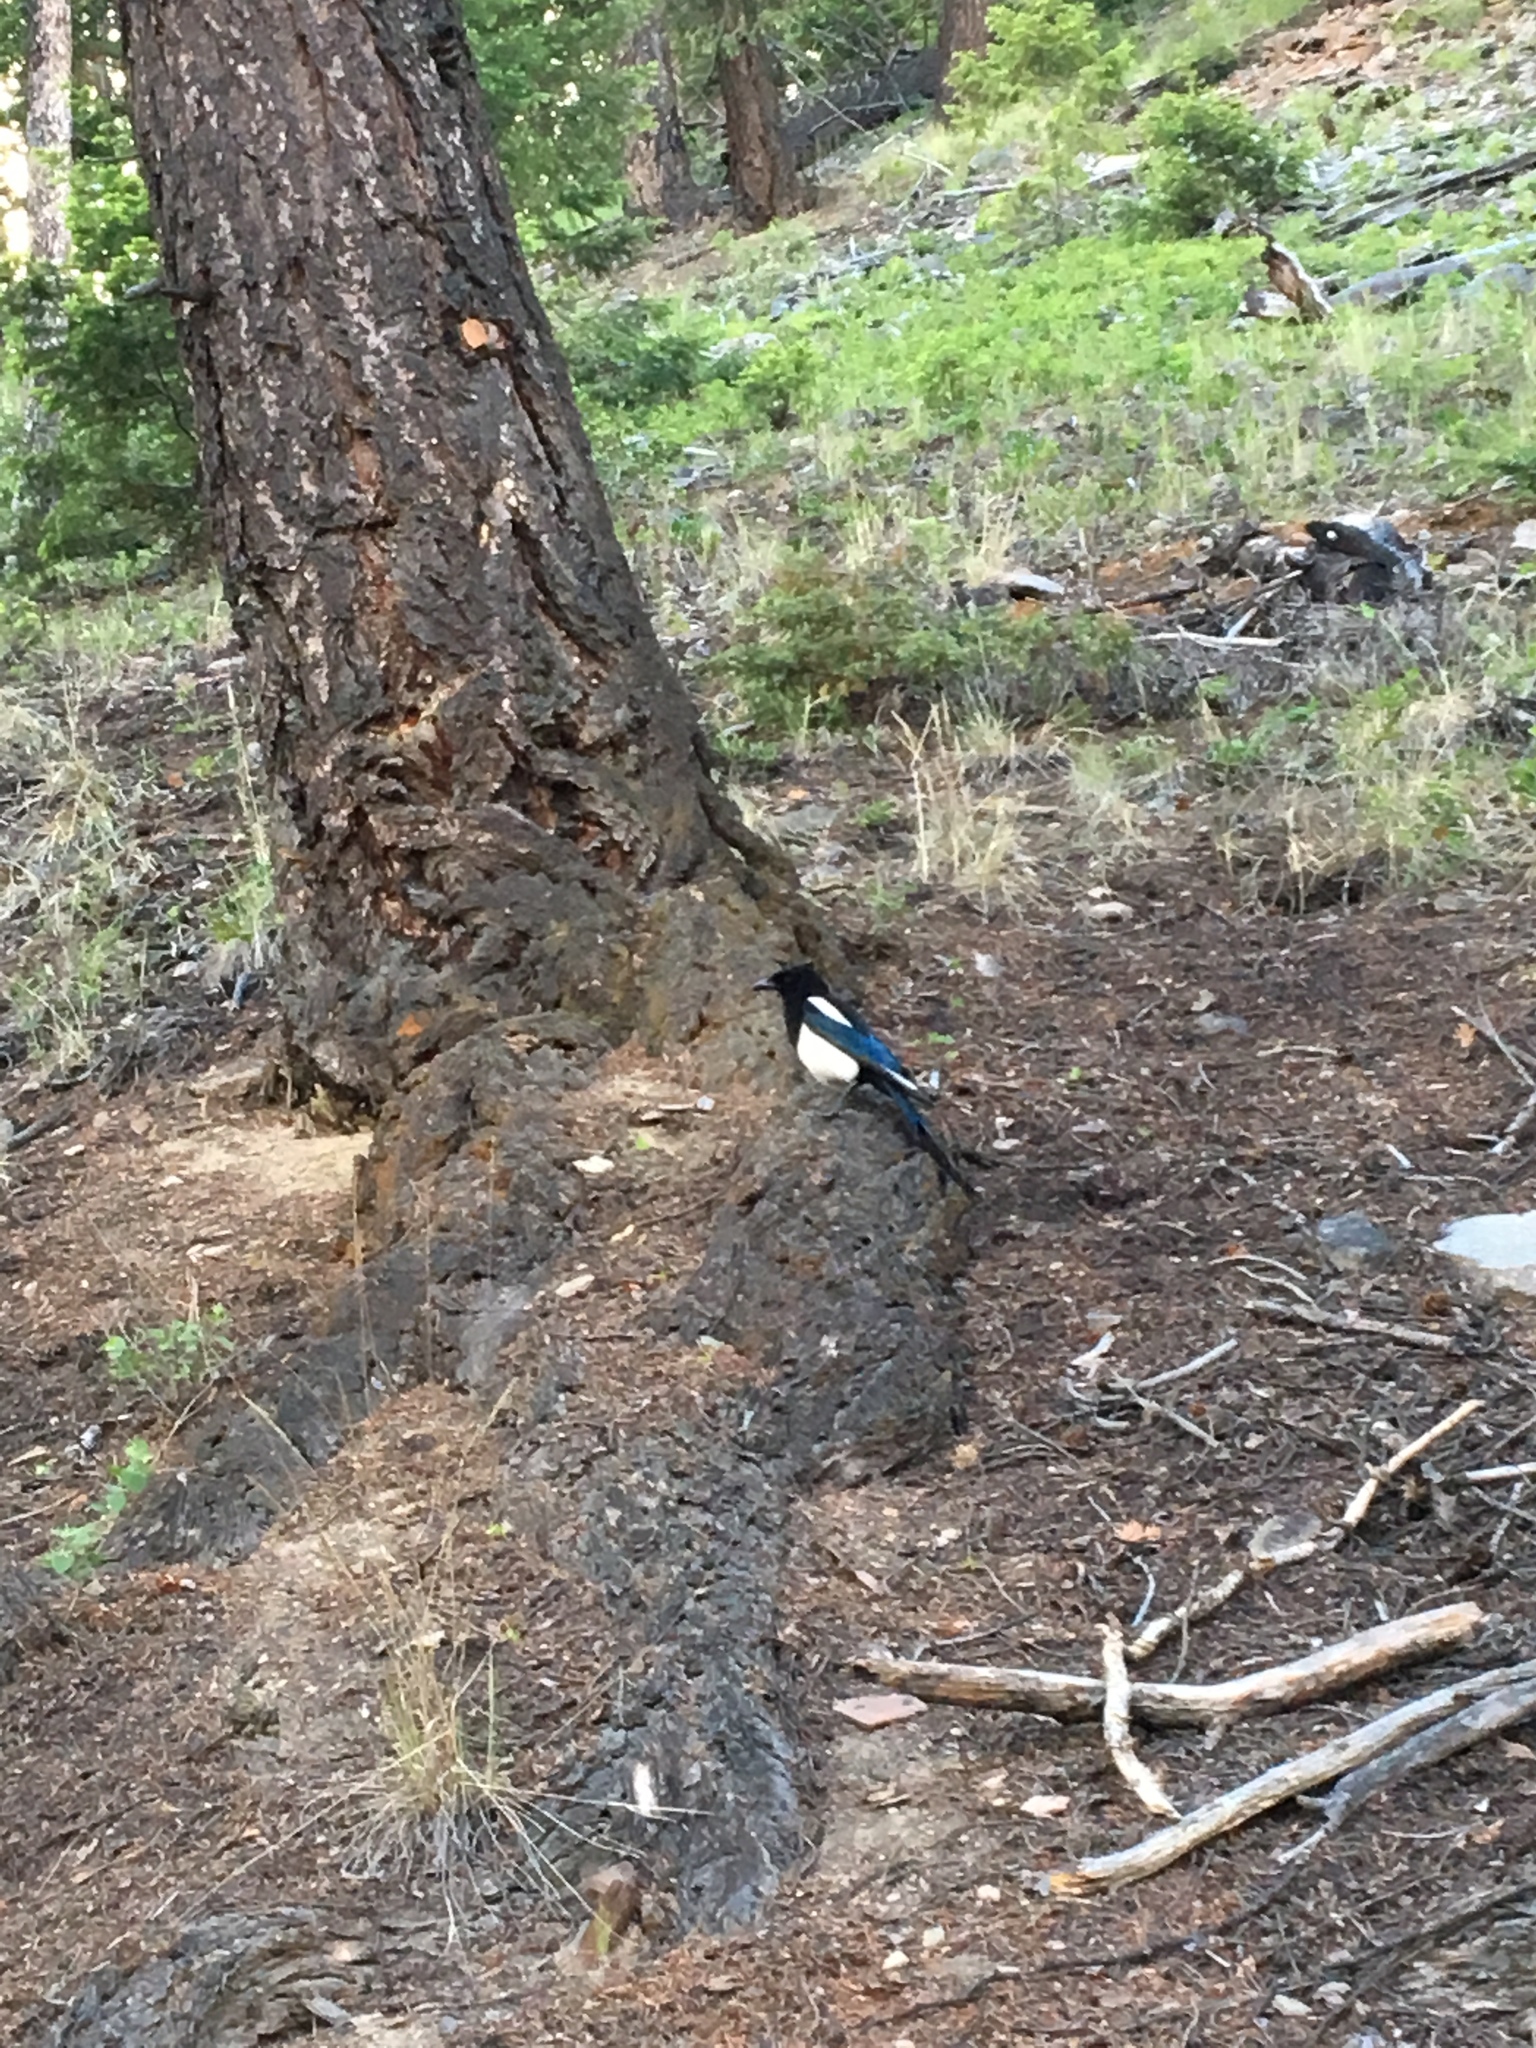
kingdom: Animalia
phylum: Chordata
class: Aves
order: Passeriformes
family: Corvidae
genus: Pica
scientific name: Pica hudsonia
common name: Black-billed magpie
